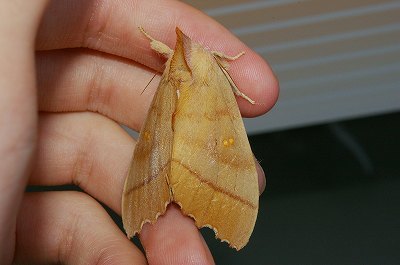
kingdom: Animalia
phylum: Arthropoda
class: Insecta
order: Lepidoptera
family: Notodontidae
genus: Euhampsonia
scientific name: Euhampsonia cristata
